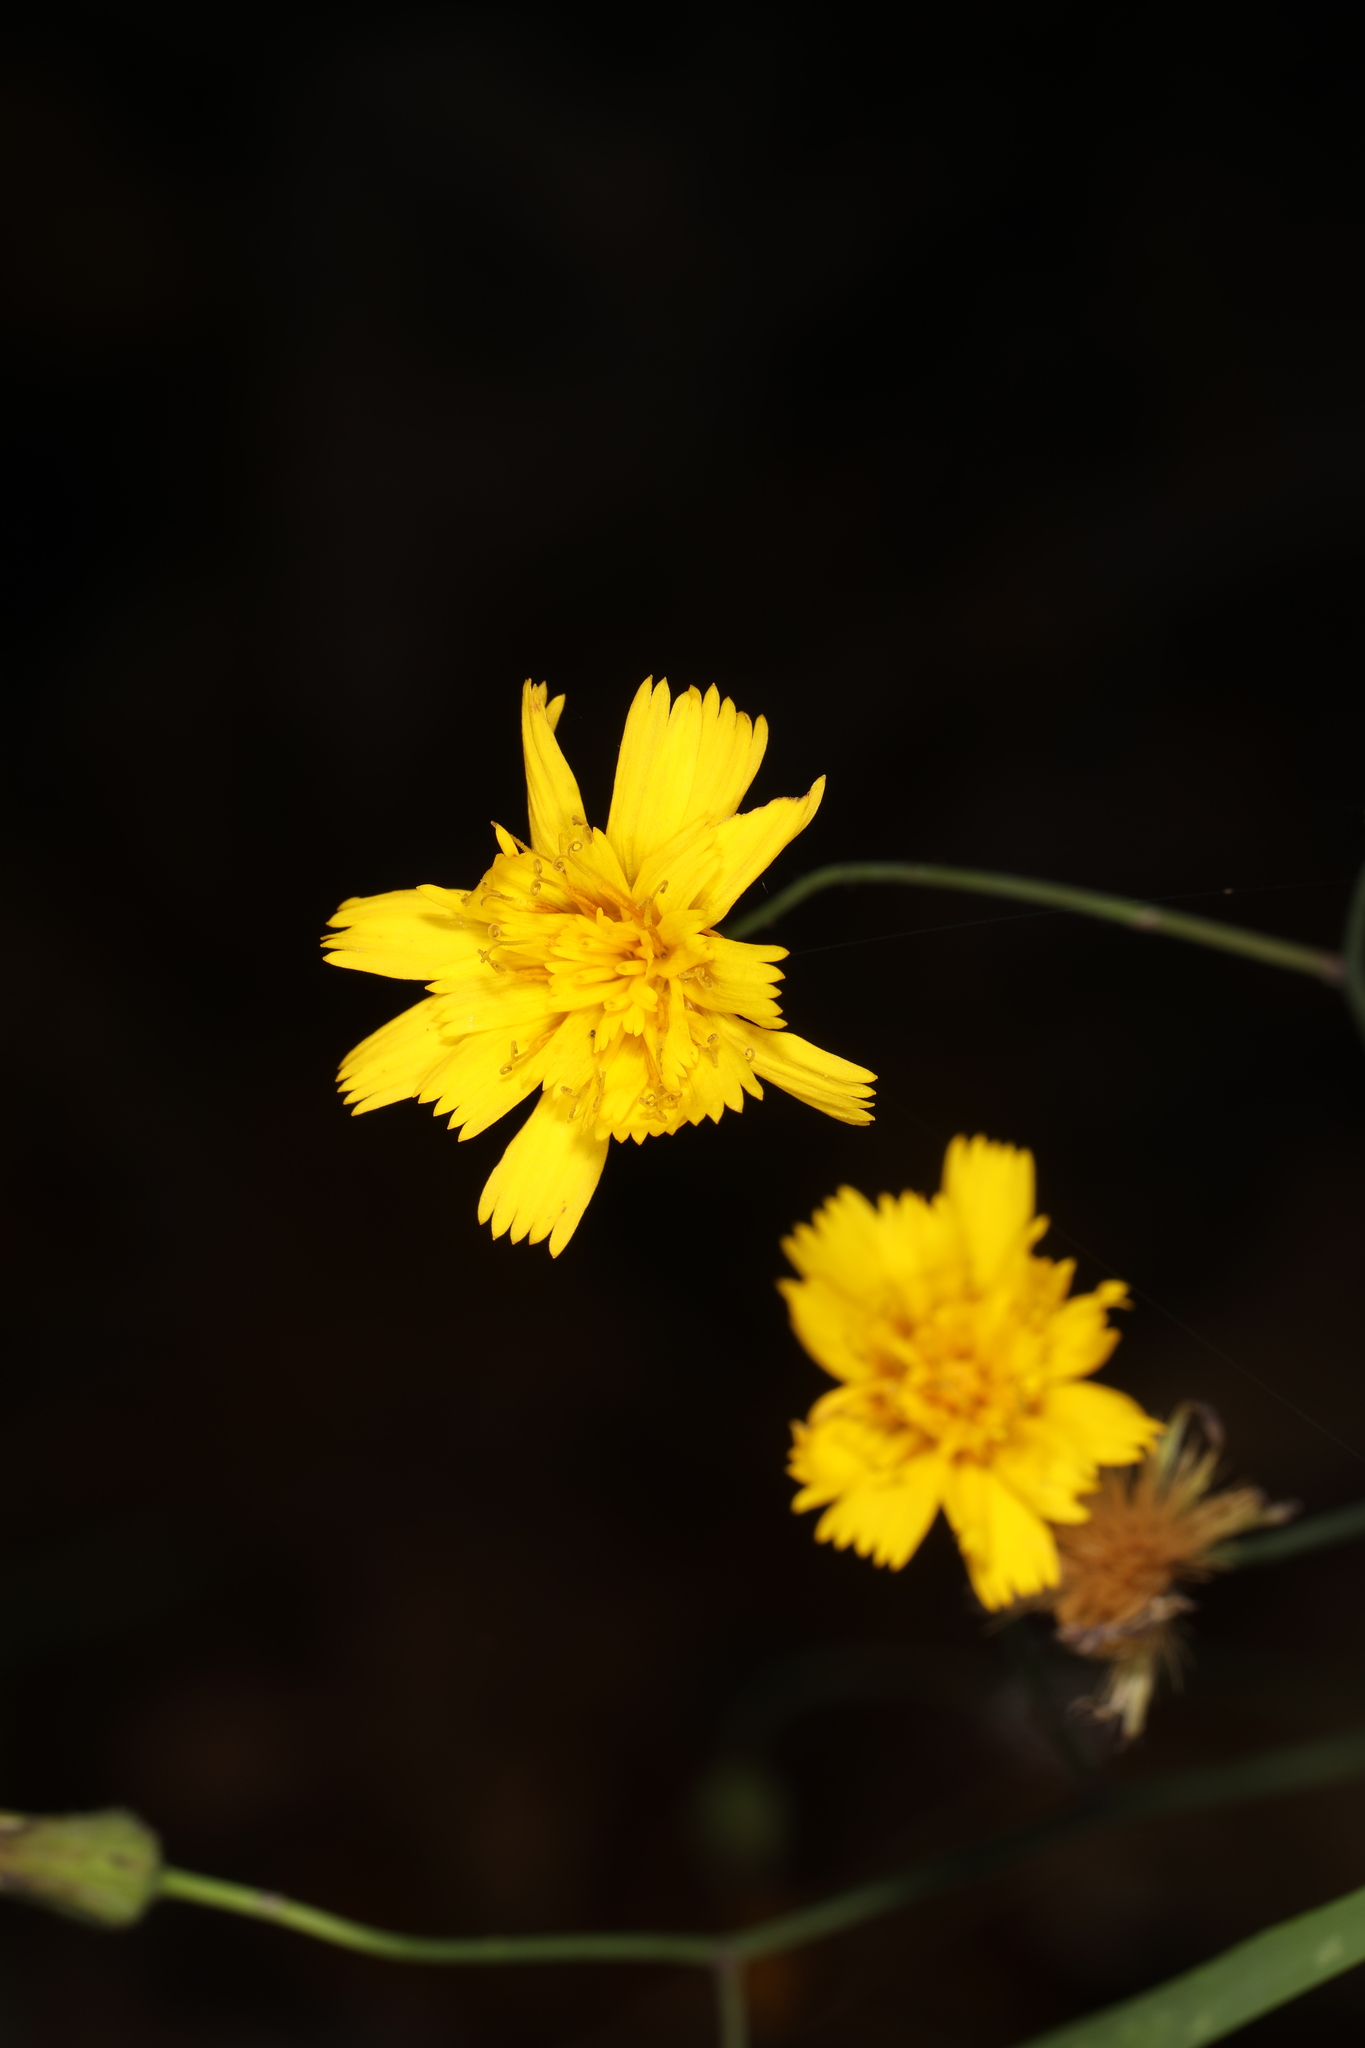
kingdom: Plantae
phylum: Tracheophyta
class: Magnoliopsida
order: Asterales
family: Asteraceae
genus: Hieracium
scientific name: Hieracium venosum
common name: Rattlesnake hawkweed
